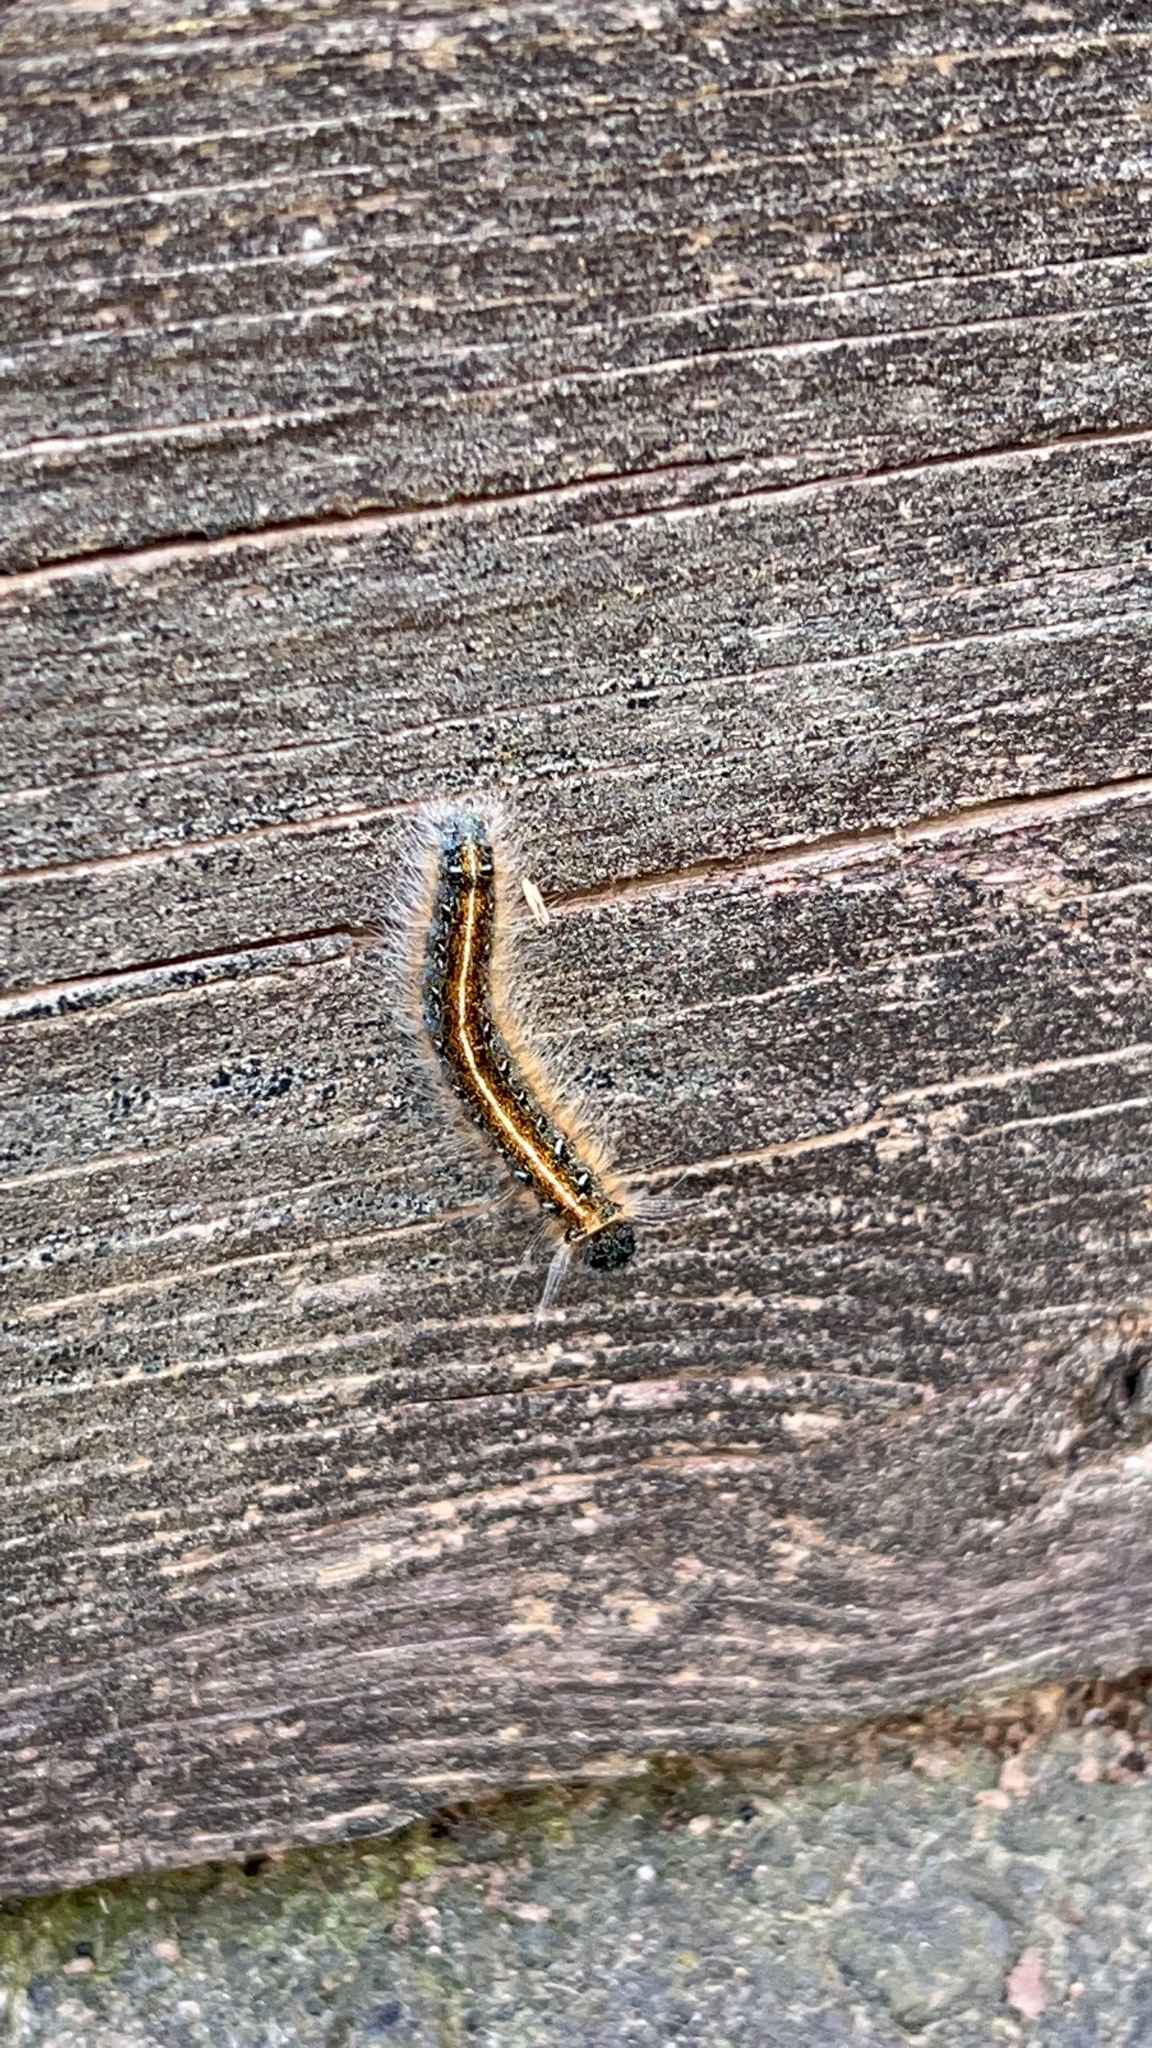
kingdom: Animalia
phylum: Arthropoda
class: Insecta
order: Lepidoptera
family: Lasiocampidae
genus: Malacosoma
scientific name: Malacosoma americana
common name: Eastern tent caterpillar moth
